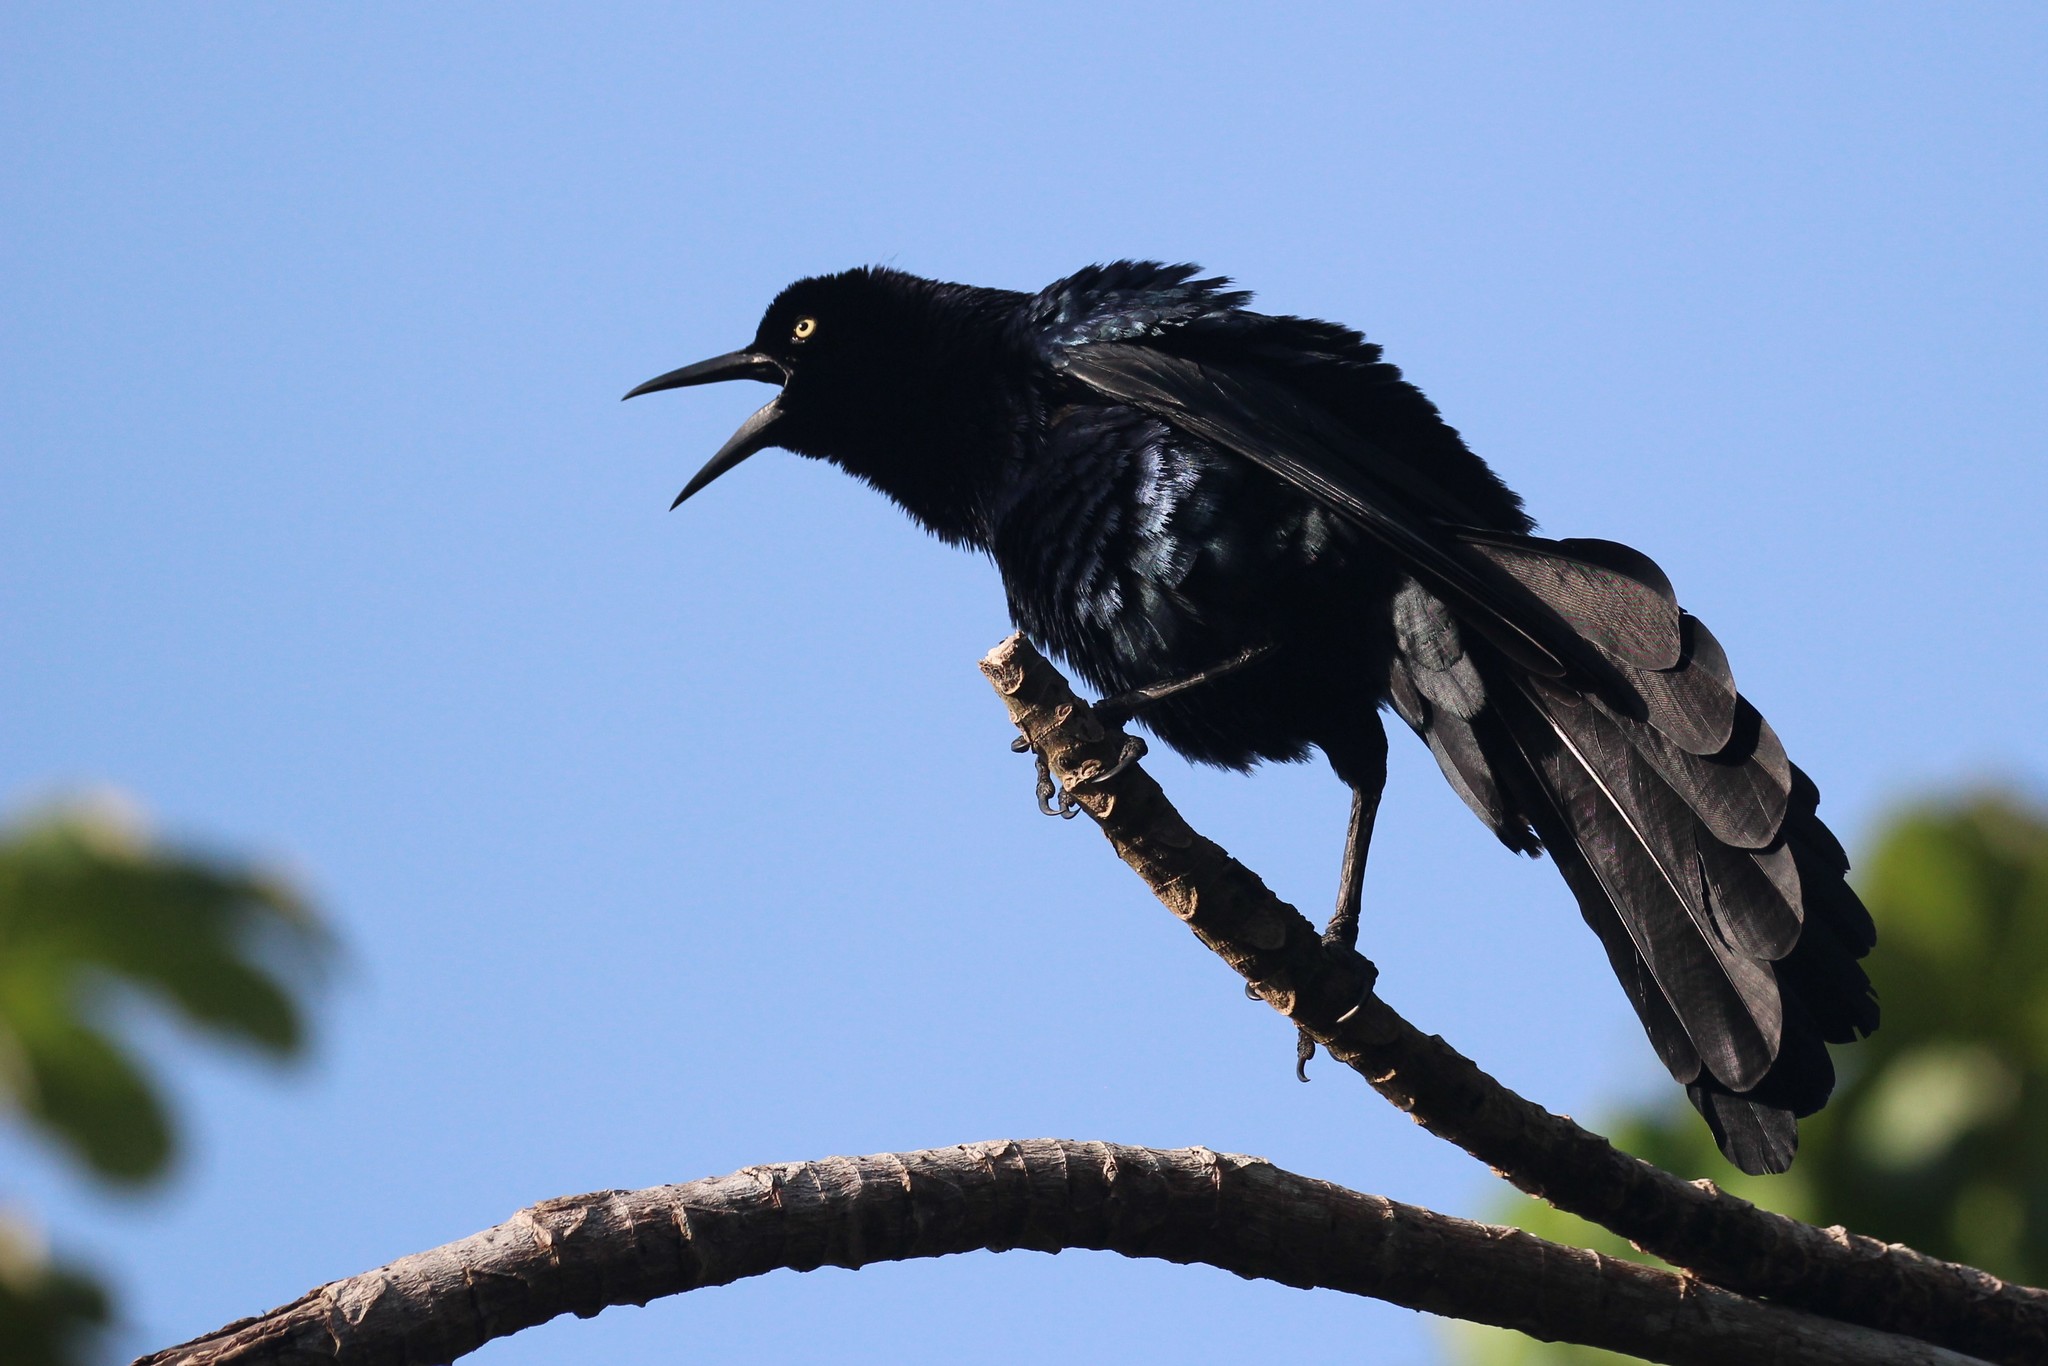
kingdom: Animalia
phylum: Chordata
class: Aves
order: Passeriformes
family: Icteridae
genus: Quiscalus
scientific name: Quiscalus mexicanus
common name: Great-tailed grackle
